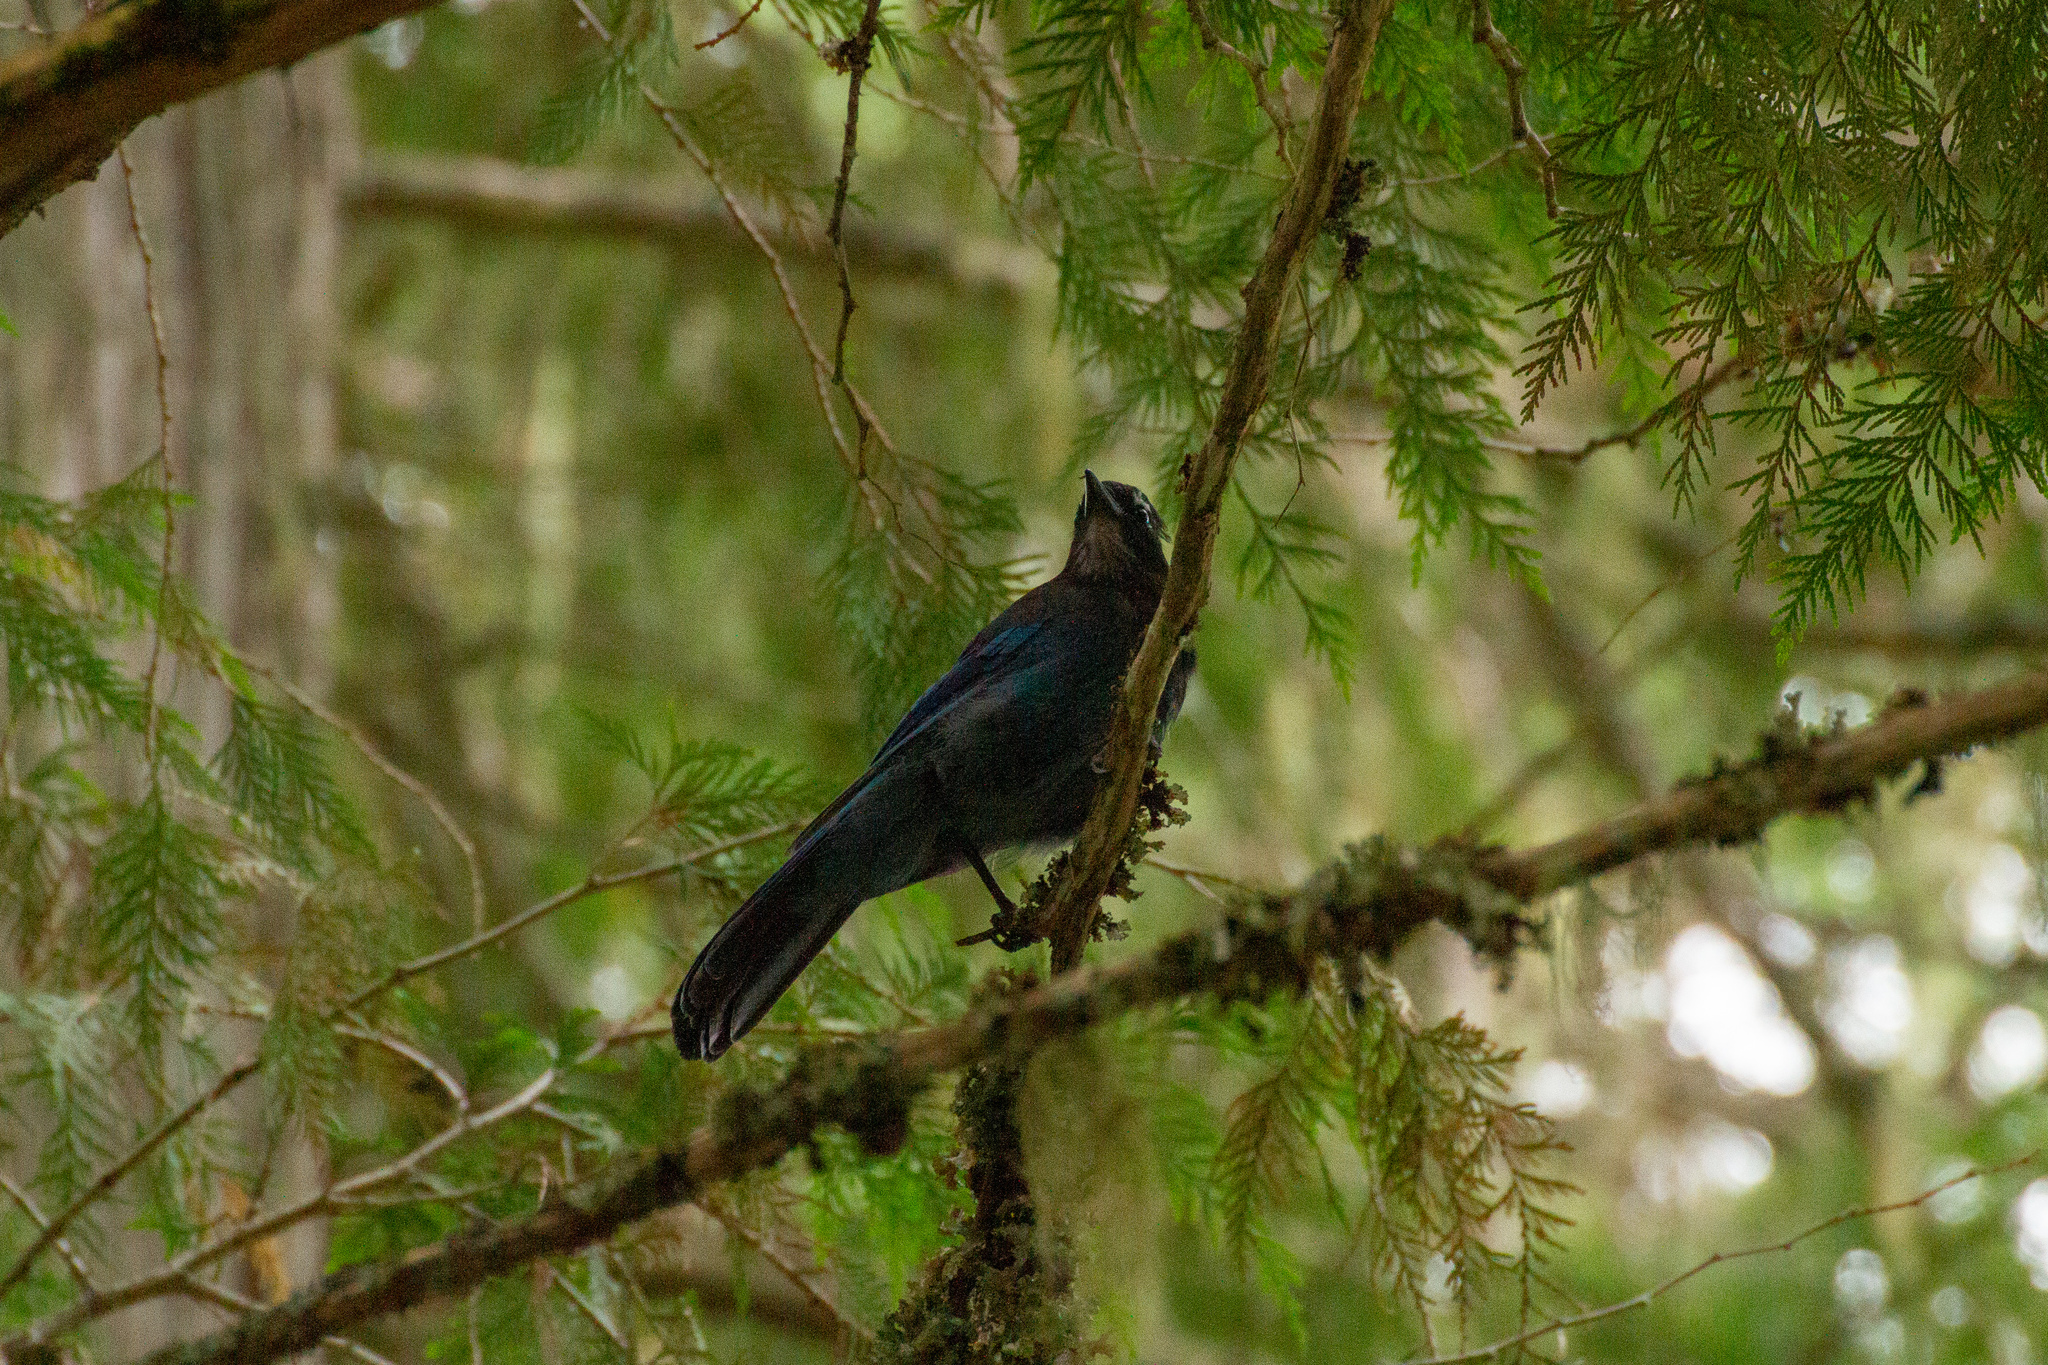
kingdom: Animalia
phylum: Chordata
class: Aves
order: Passeriformes
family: Corvidae
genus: Cyanocitta
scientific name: Cyanocitta stelleri
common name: Steller's jay
